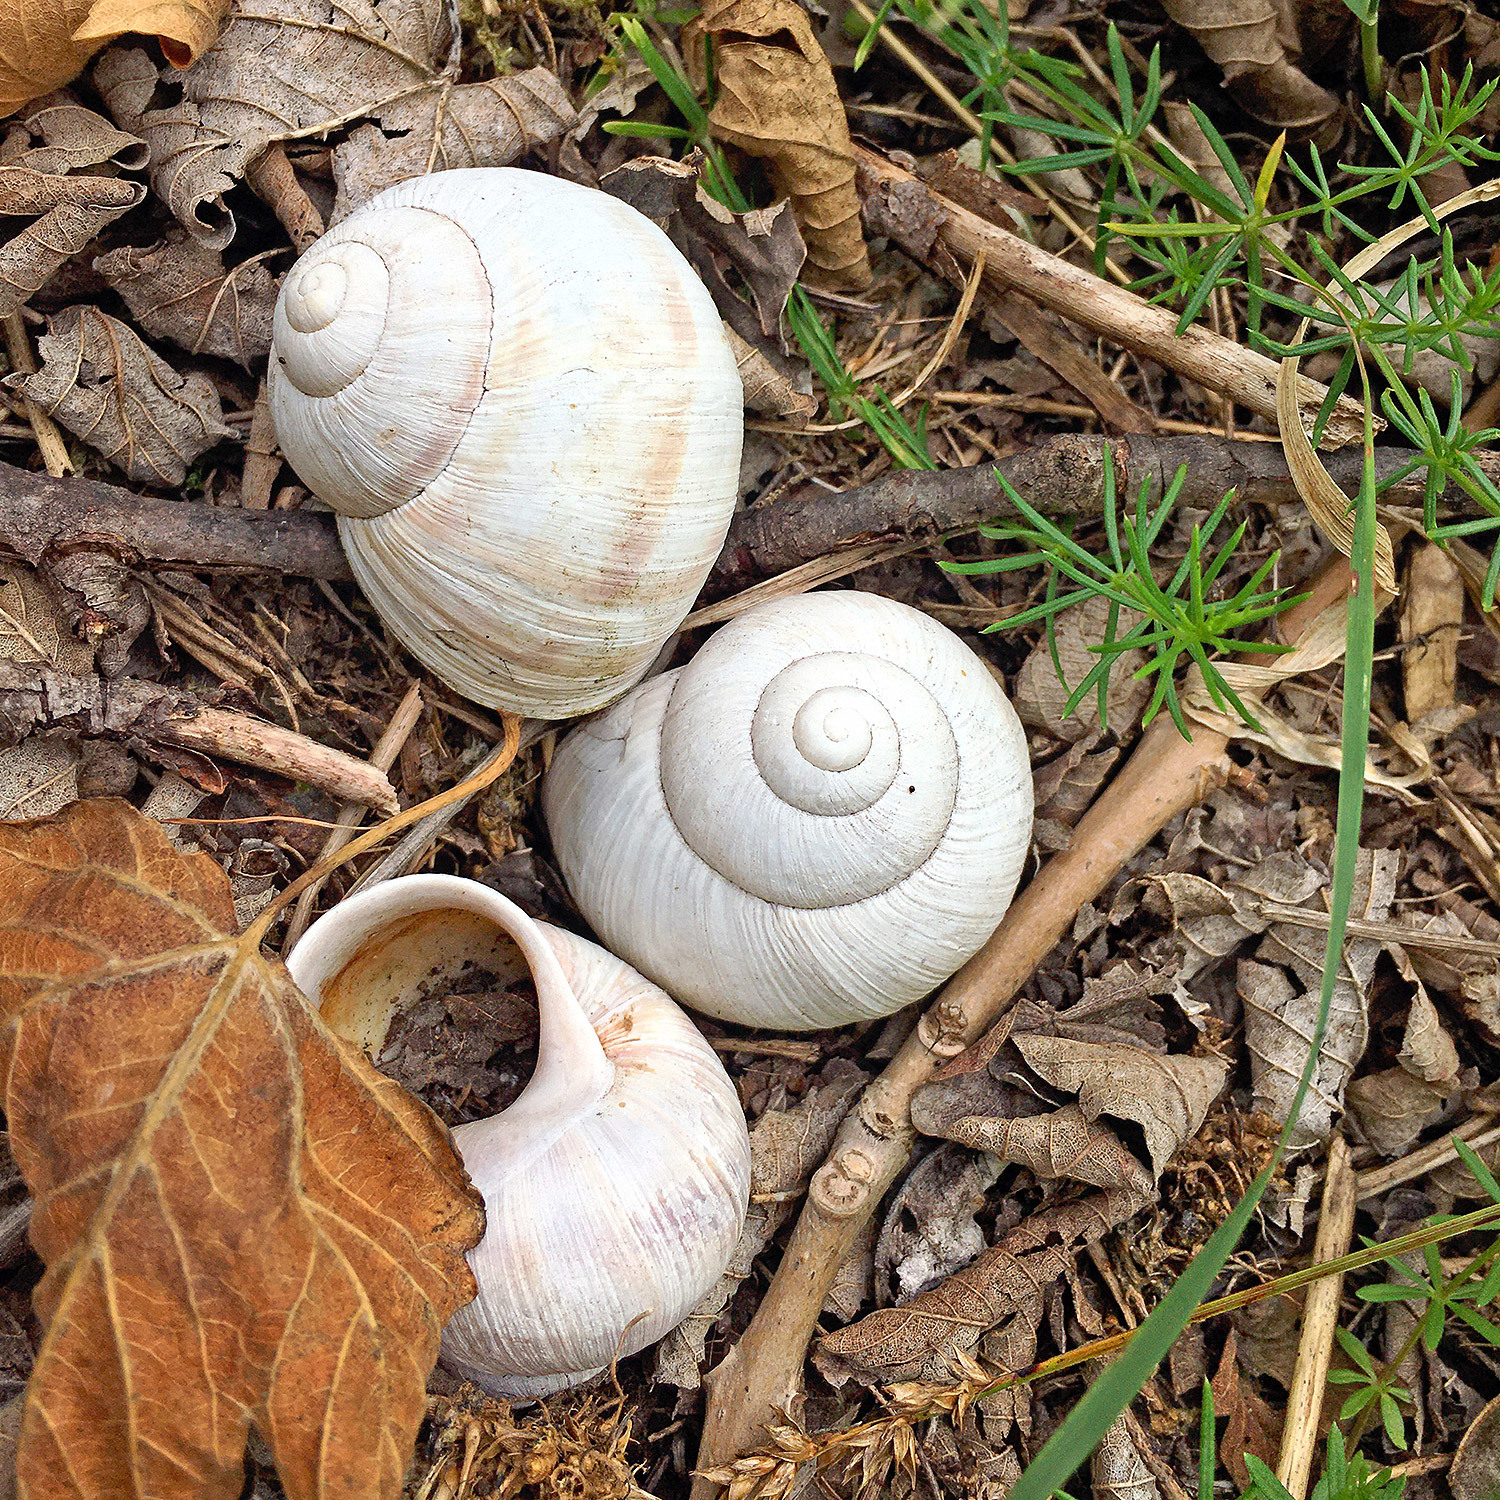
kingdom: Animalia
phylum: Mollusca
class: Gastropoda
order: Stylommatophora
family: Helicidae
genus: Helix
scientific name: Helix pomatia
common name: Roman snail
